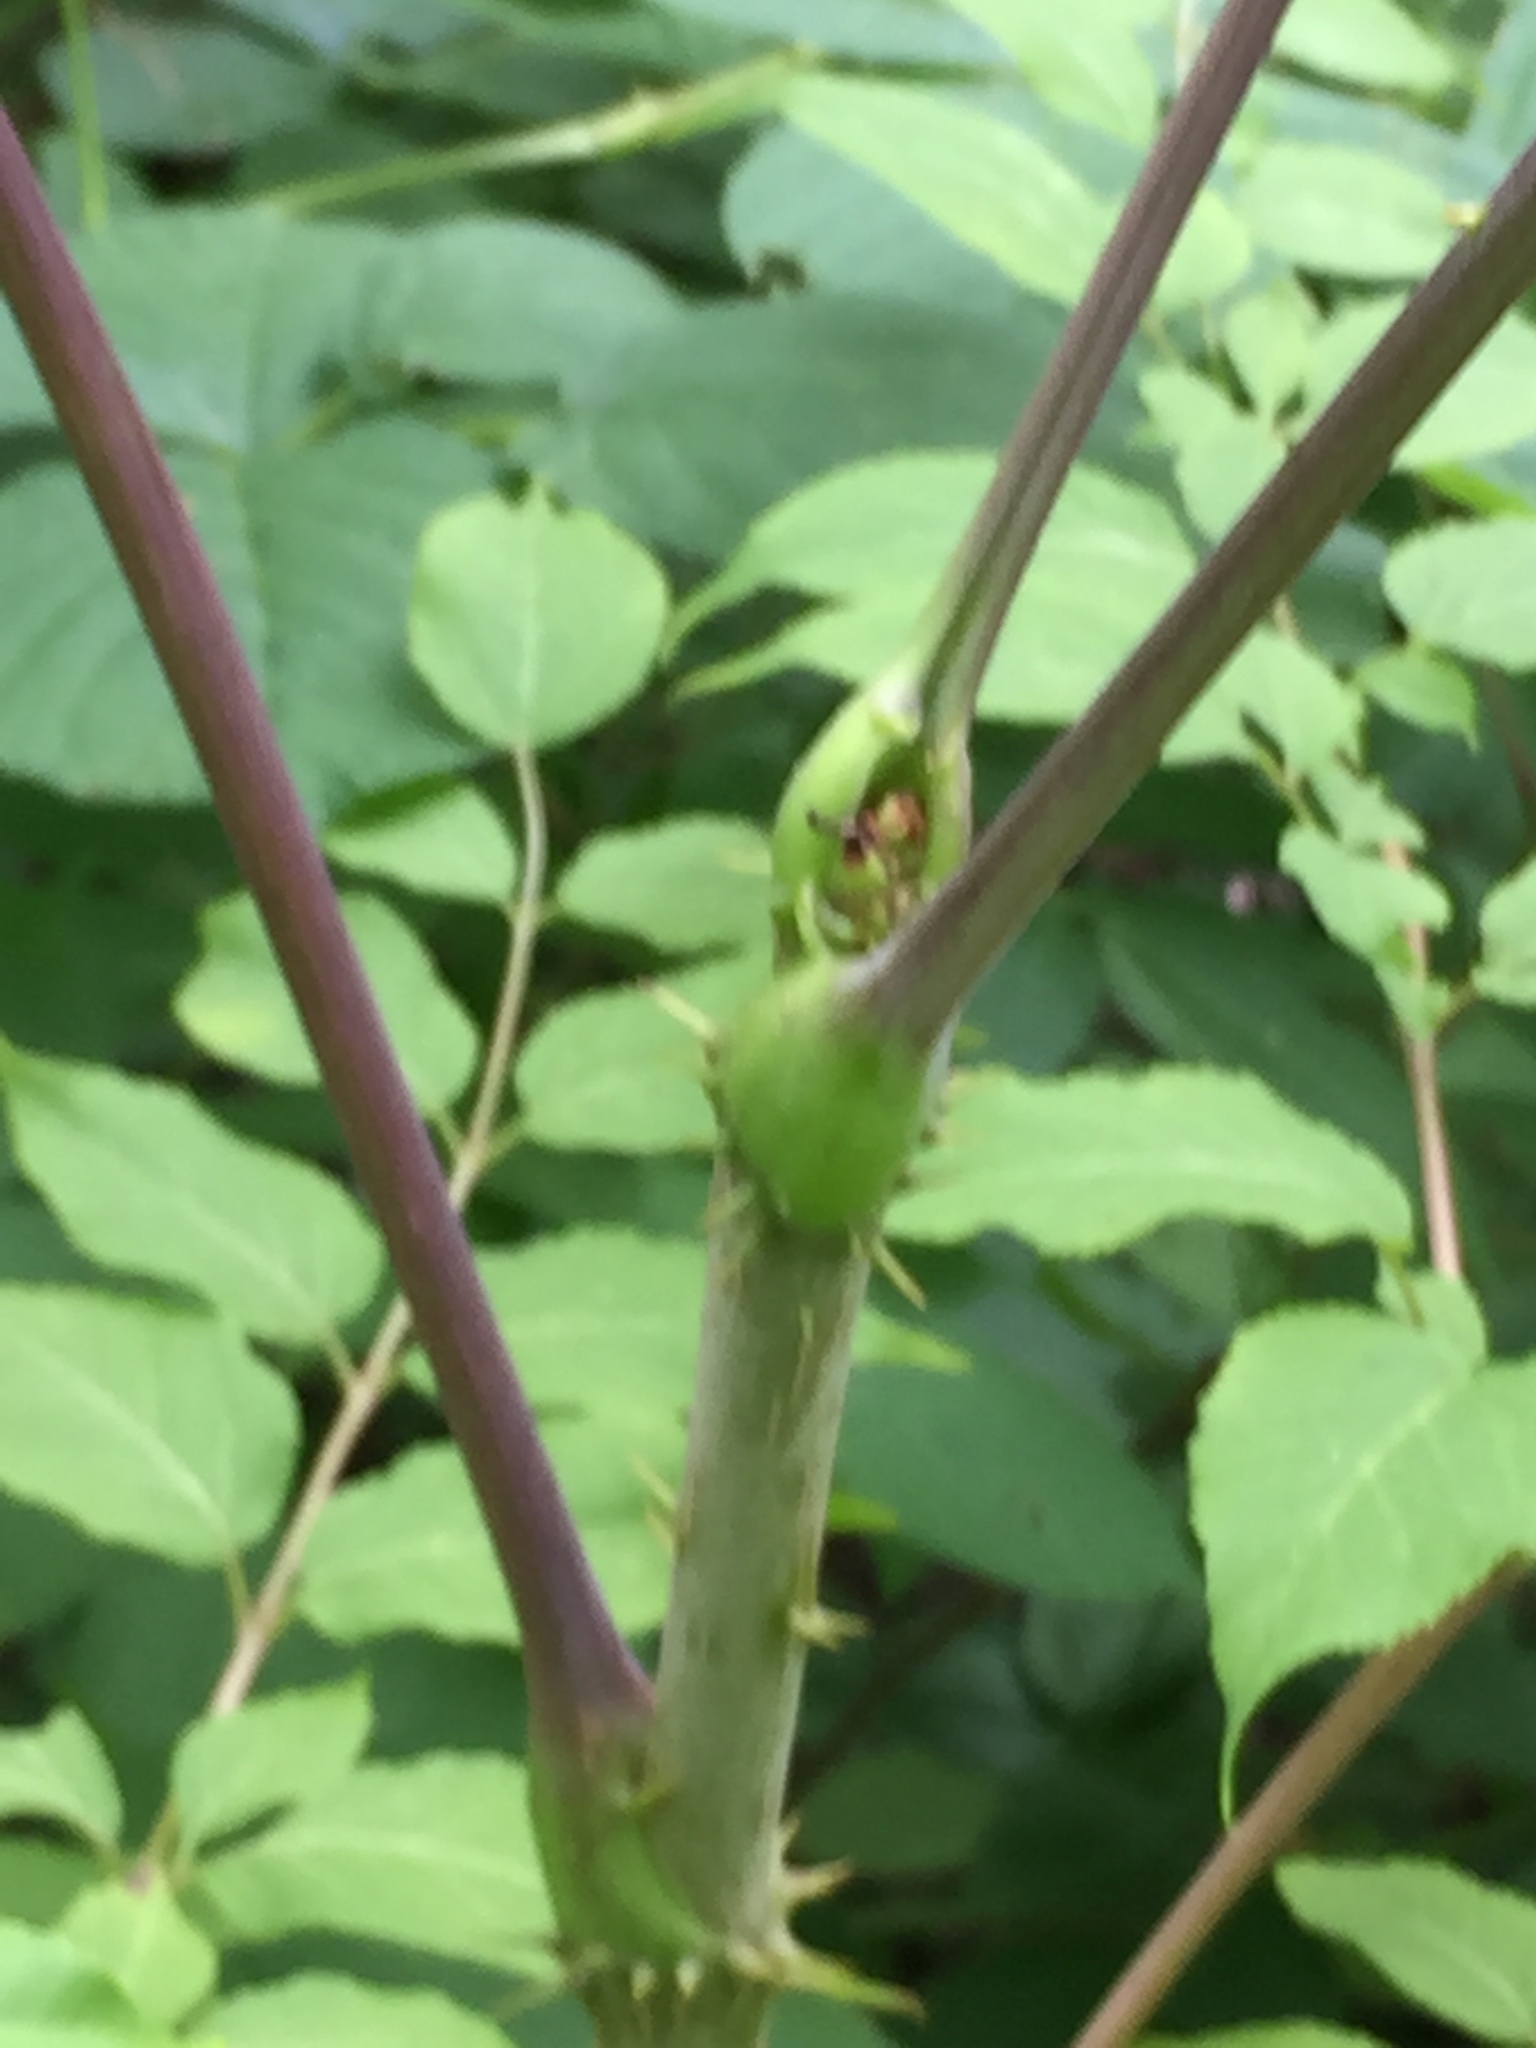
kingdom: Plantae
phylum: Tracheophyta
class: Magnoliopsida
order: Apiales
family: Araliaceae
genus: Aralia
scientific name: Aralia spinosa
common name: Hercules'-club
